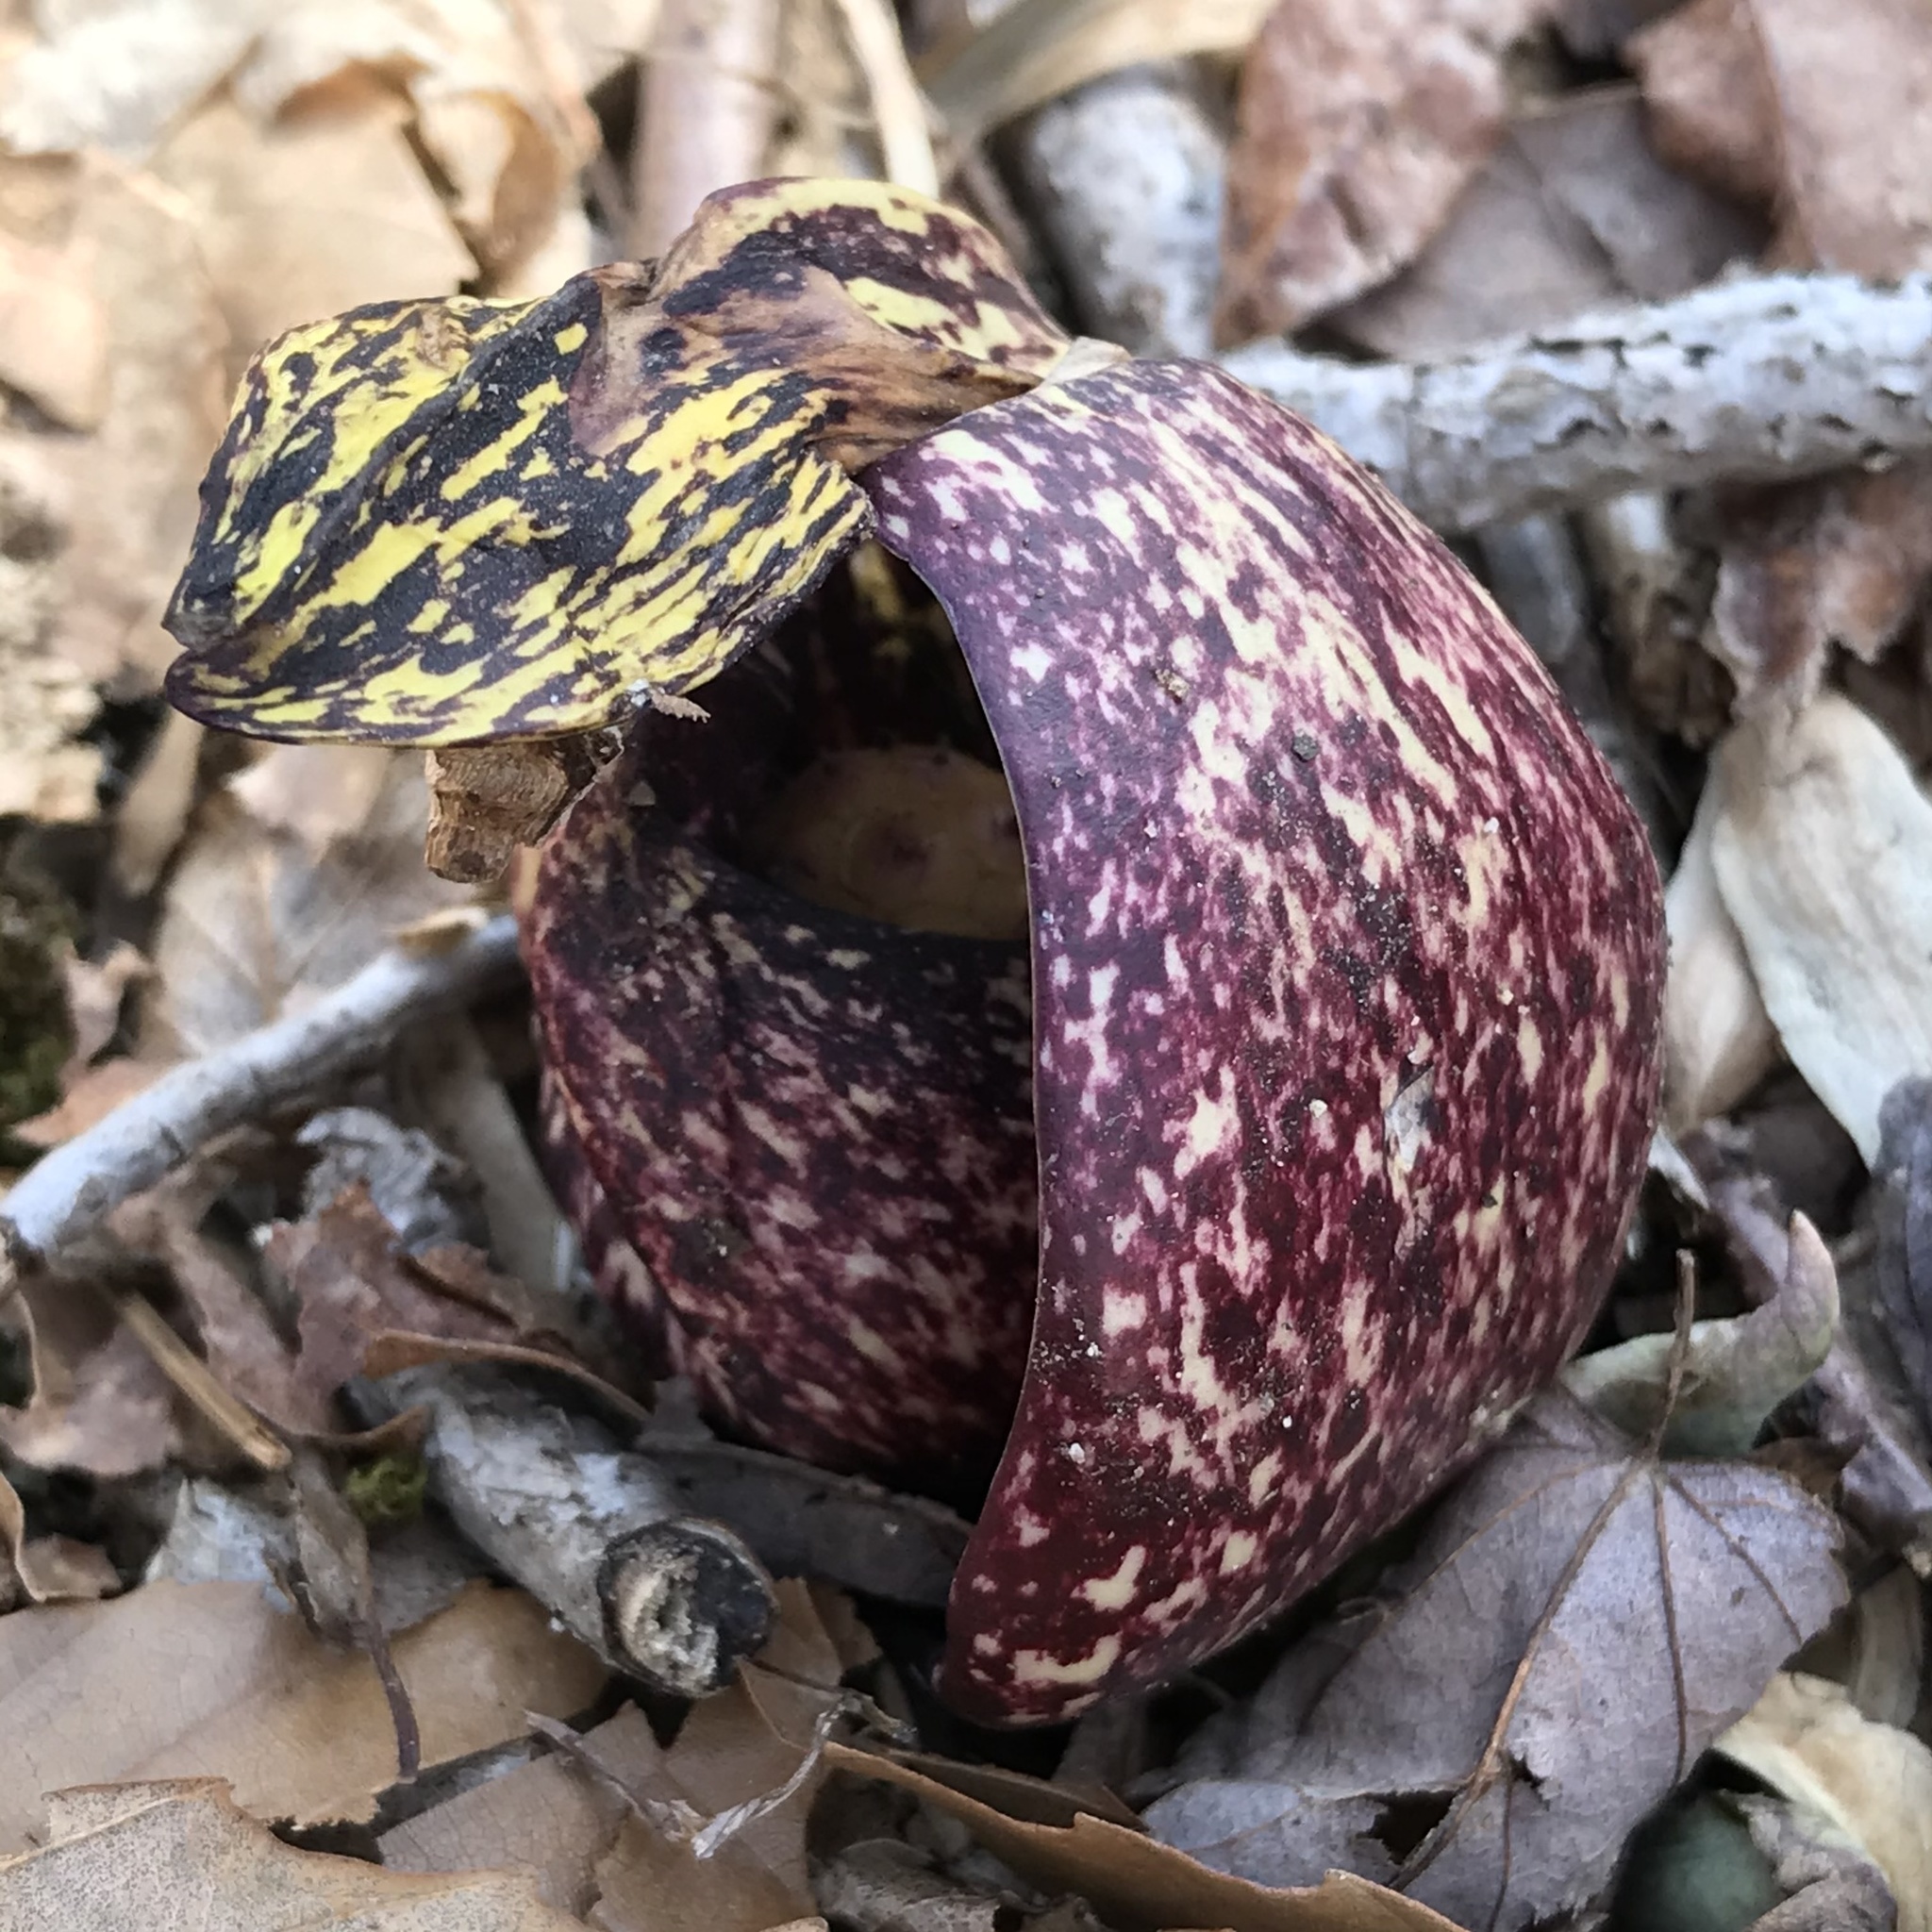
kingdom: Plantae
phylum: Tracheophyta
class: Liliopsida
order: Alismatales
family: Araceae
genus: Symplocarpus
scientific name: Symplocarpus foetidus
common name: Eastern skunk cabbage
